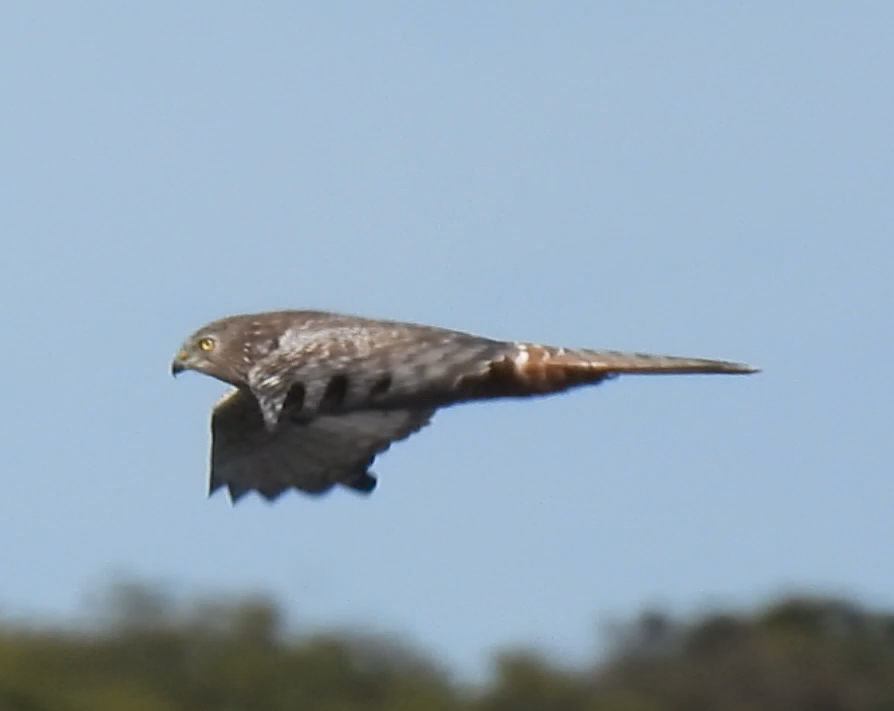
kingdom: Animalia
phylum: Chordata
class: Aves
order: Accipitriformes
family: Accipitridae
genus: Circus
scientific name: Circus ranivorus
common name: African marsh-harrier
